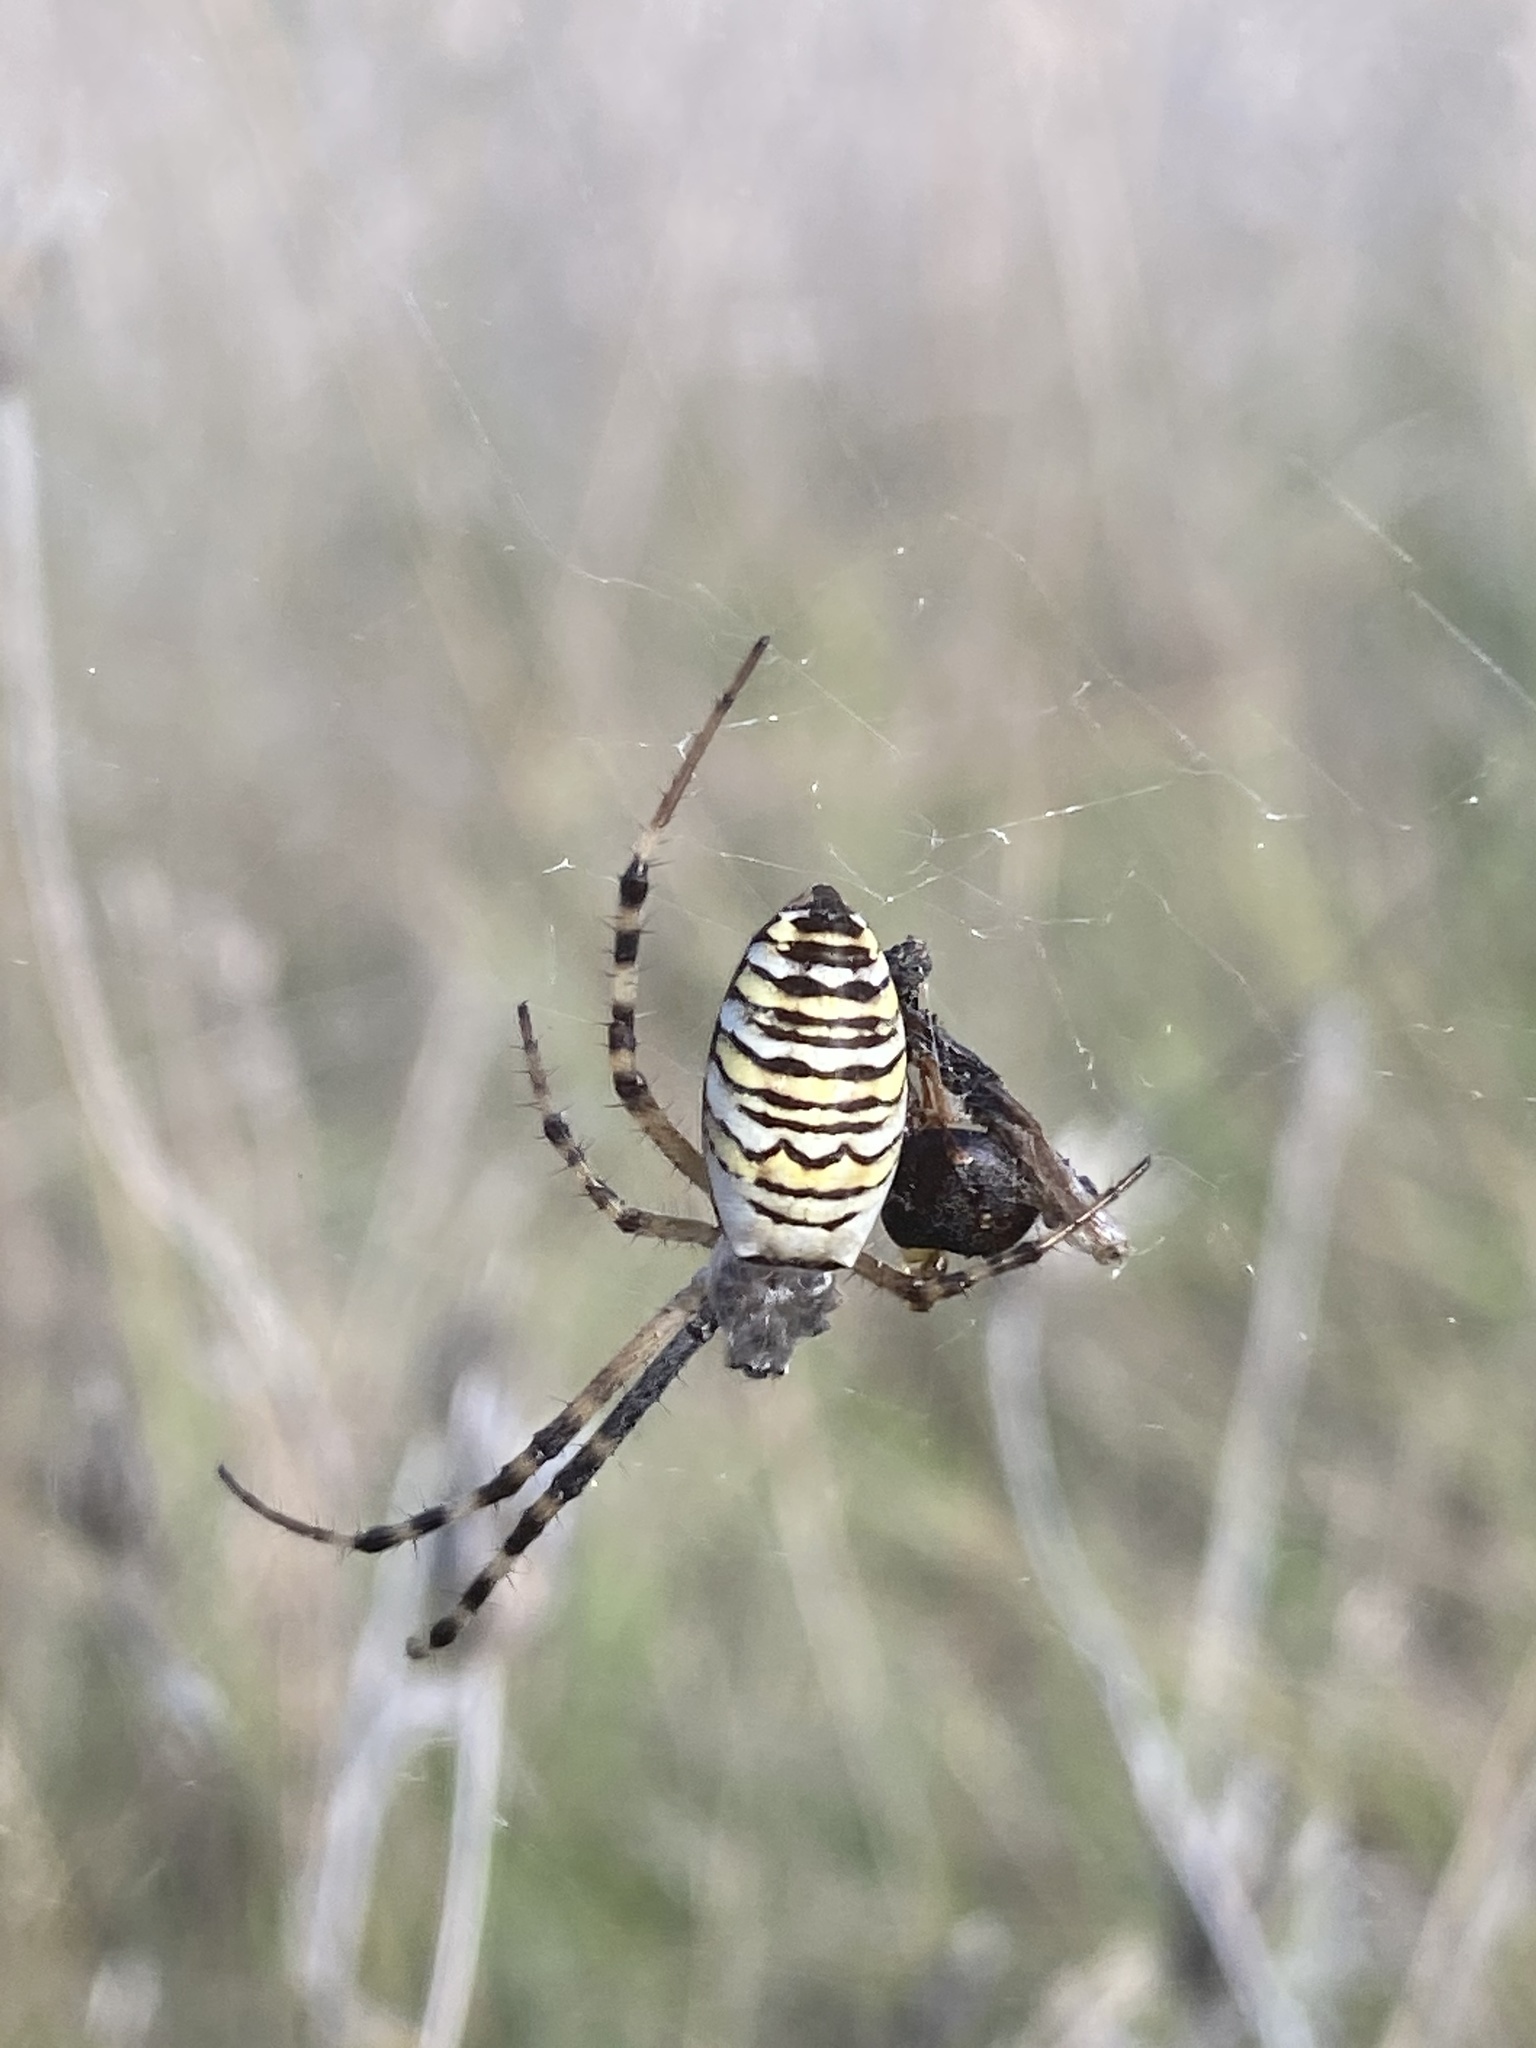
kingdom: Animalia
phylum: Arthropoda
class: Arachnida
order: Araneae
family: Araneidae
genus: Argiope
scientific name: Argiope bruennichi
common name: Wasp spider
